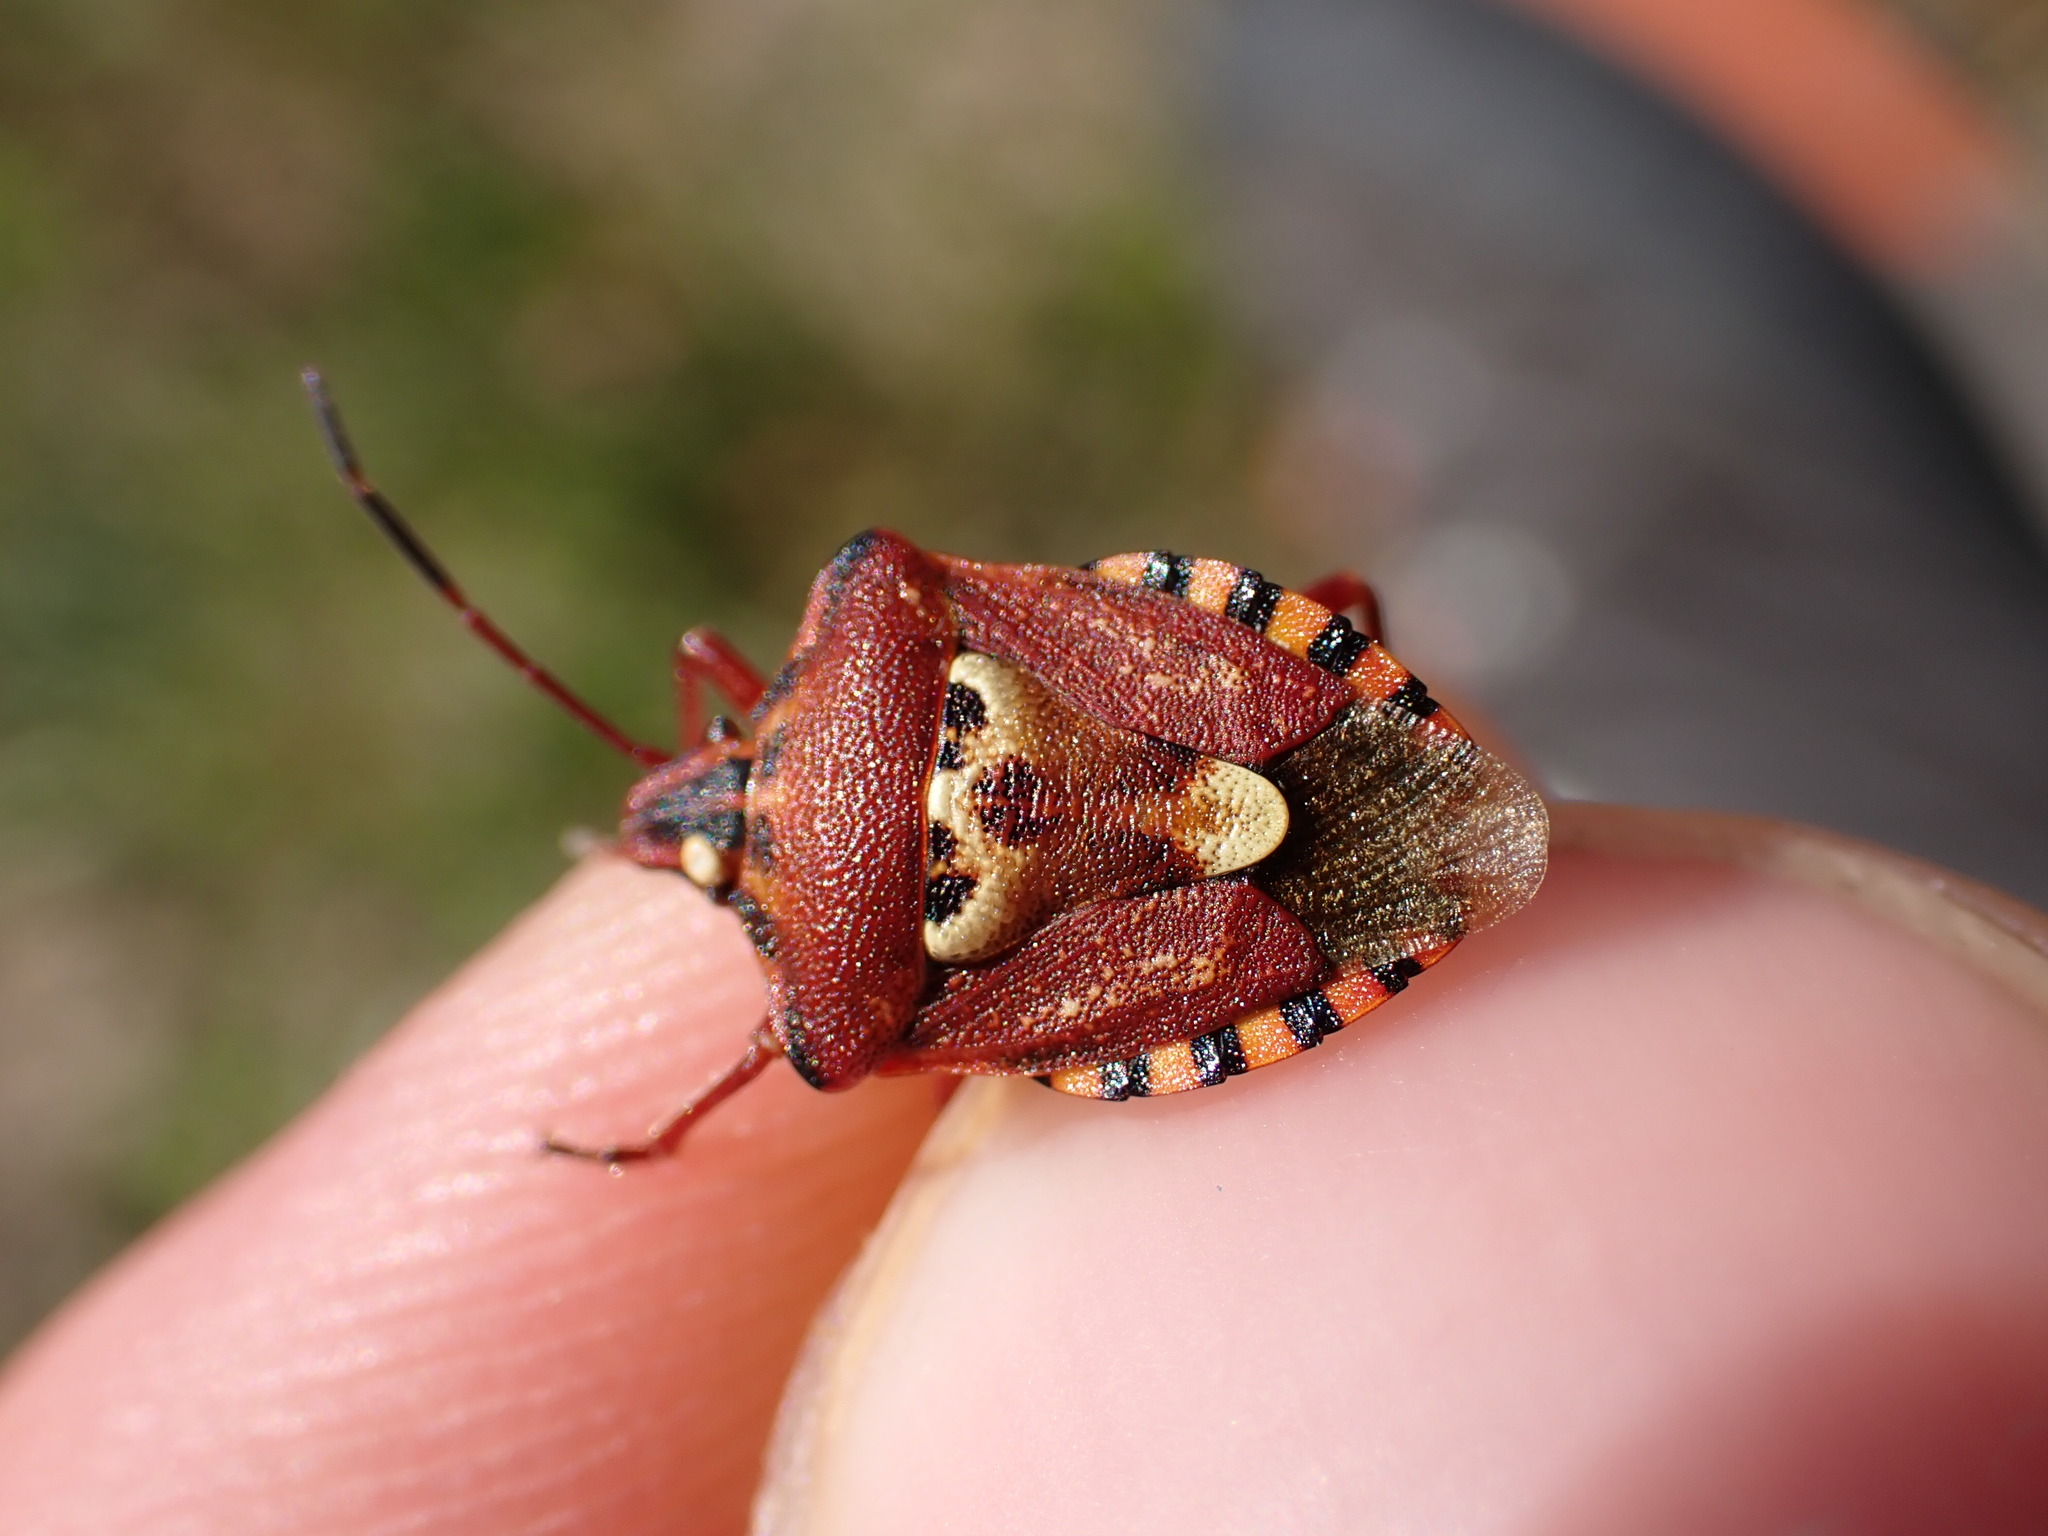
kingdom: Animalia
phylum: Arthropoda
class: Insecta
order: Hemiptera
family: Miridae
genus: Orthops
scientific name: Orthops kalmii
